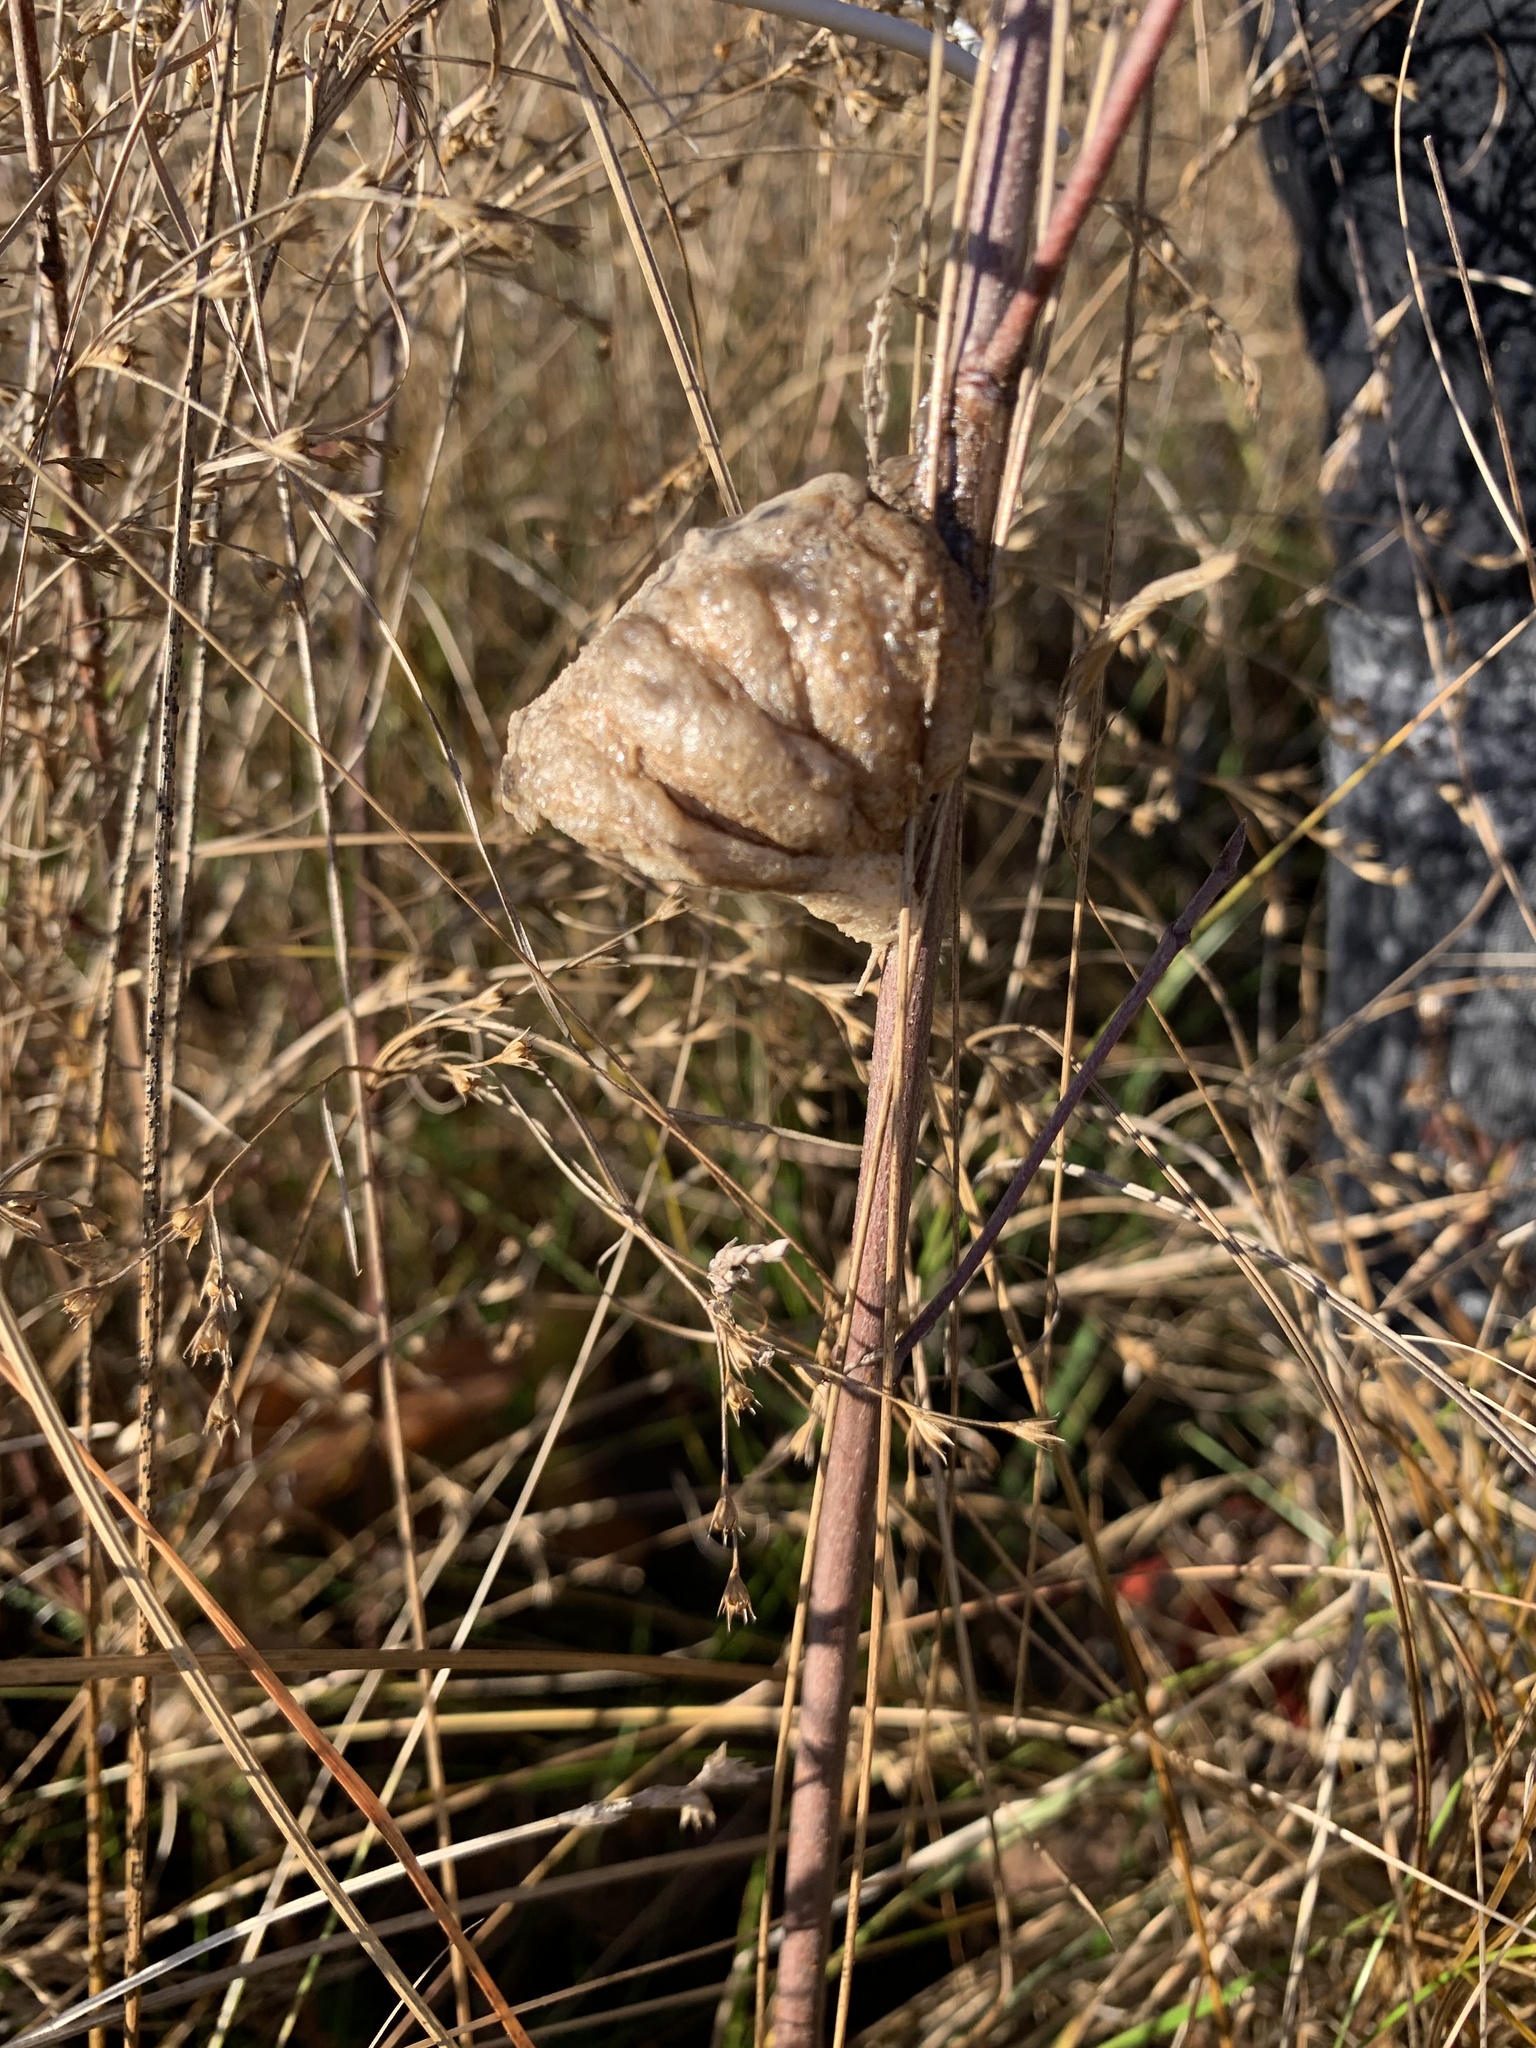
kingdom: Animalia
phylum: Arthropoda
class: Insecta
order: Mantodea
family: Mantidae
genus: Tenodera
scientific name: Tenodera sinensis
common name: Chinese mantis
